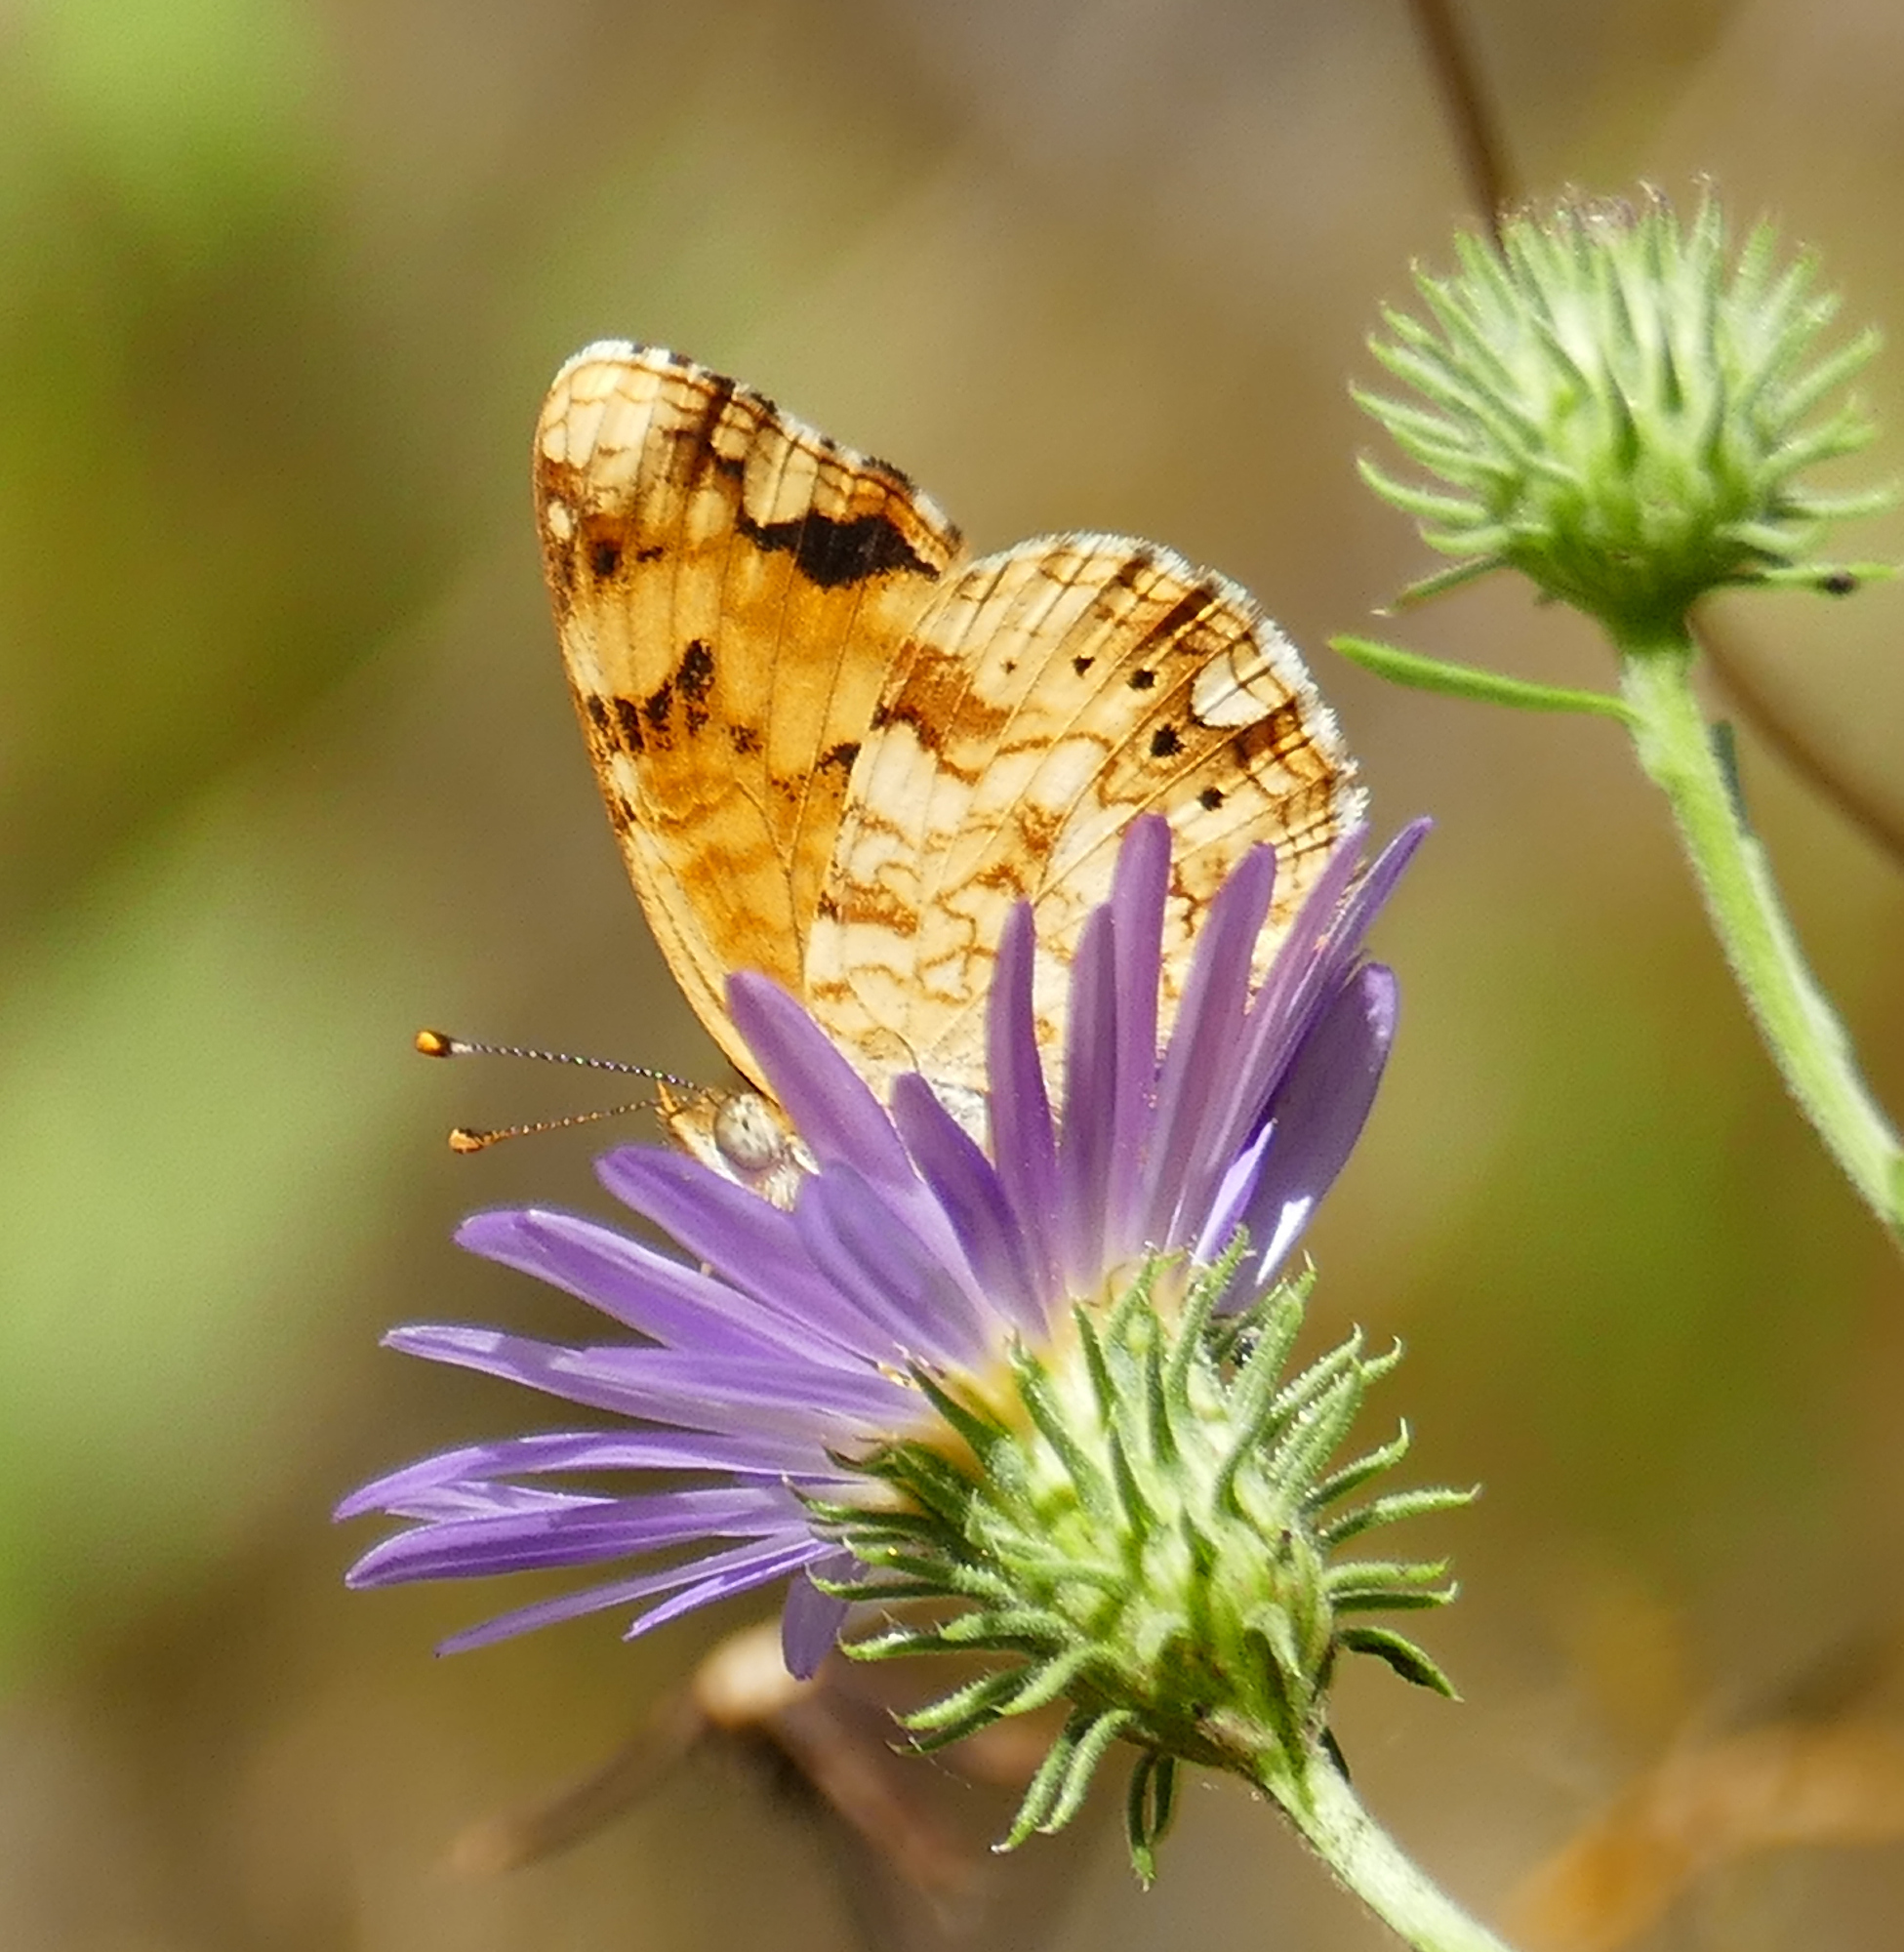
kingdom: Animalia
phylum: Arthropoda
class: Insecta
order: Lepidoptera
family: Nymphalidae
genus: Eresia
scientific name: Eresia aveyrona
